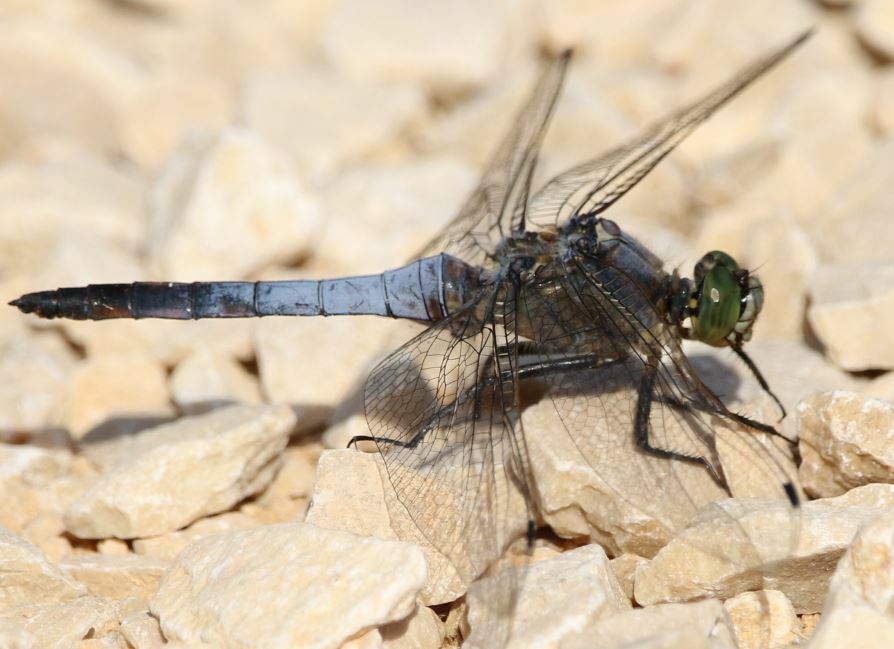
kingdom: Animalia
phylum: Arthropoda
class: Insecta
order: Odonata
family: Libellulidae
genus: Orthetrum
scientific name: Orthetrum cancellatum
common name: Black-tailed skimmer
